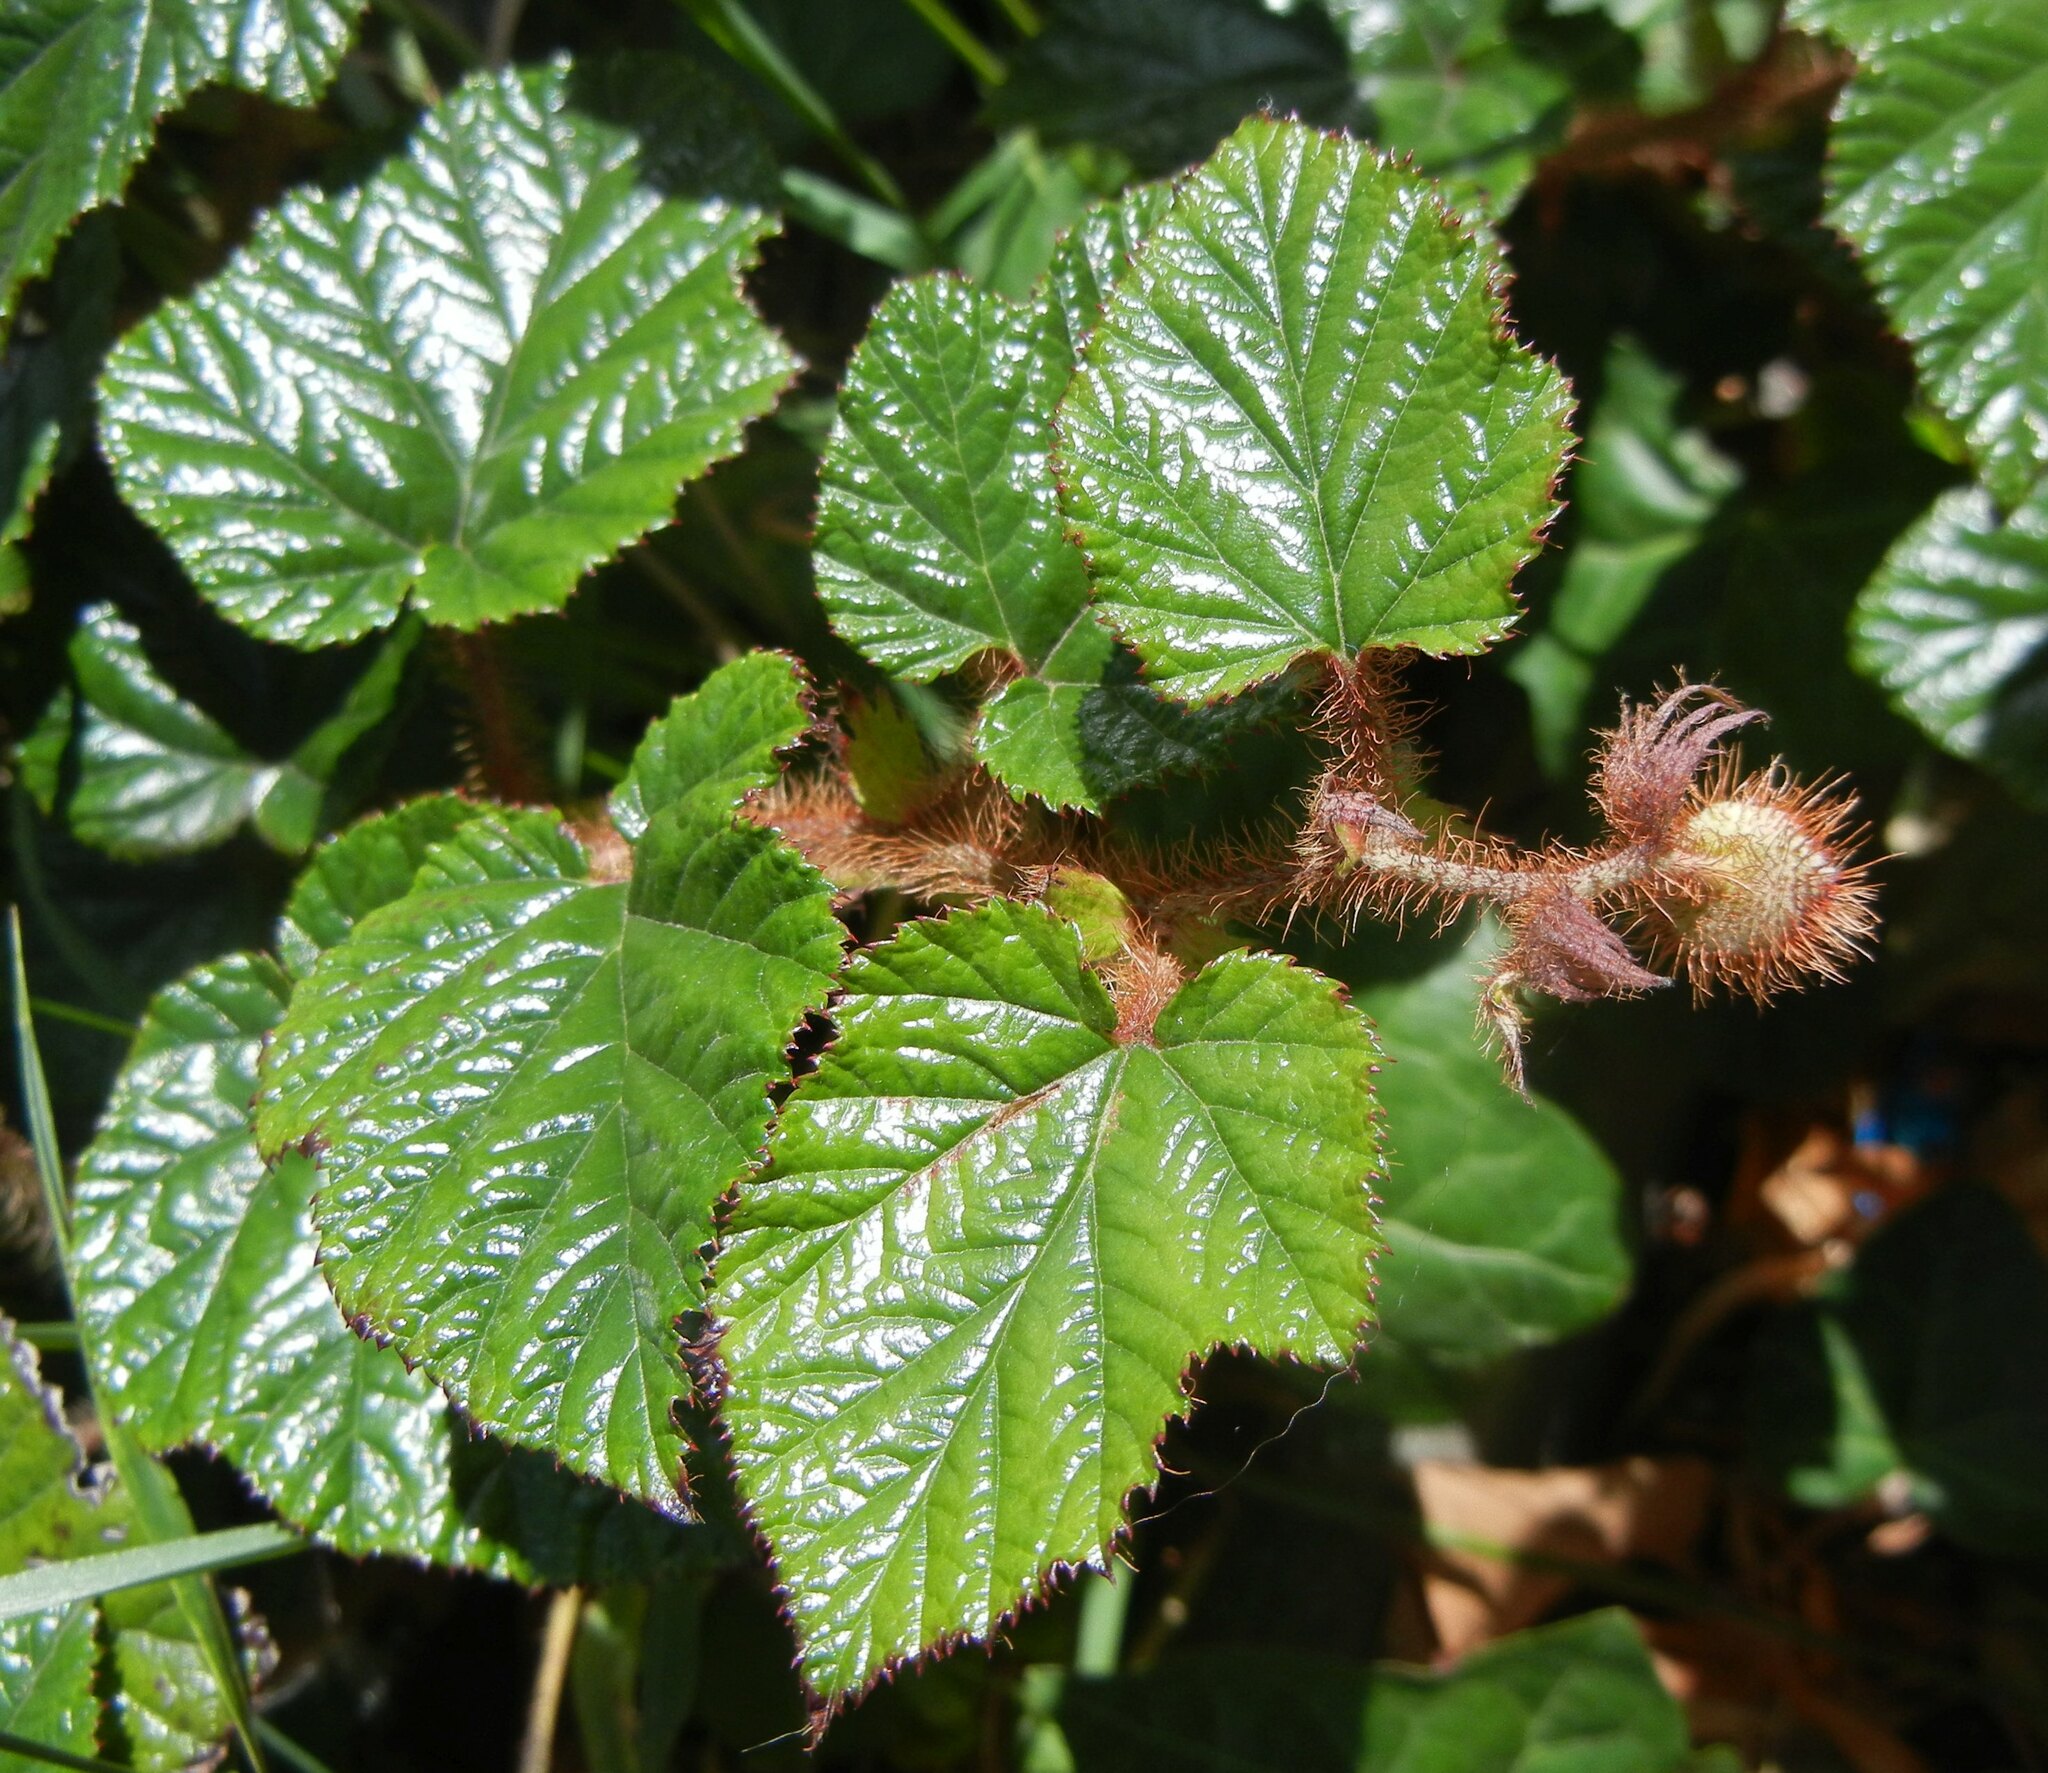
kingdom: Plantae
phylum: Tracheophyta
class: Magnoliopsida
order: Rosales
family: Rosaceae
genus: Rubus
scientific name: Rubus tricolor
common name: Chinese bramble
